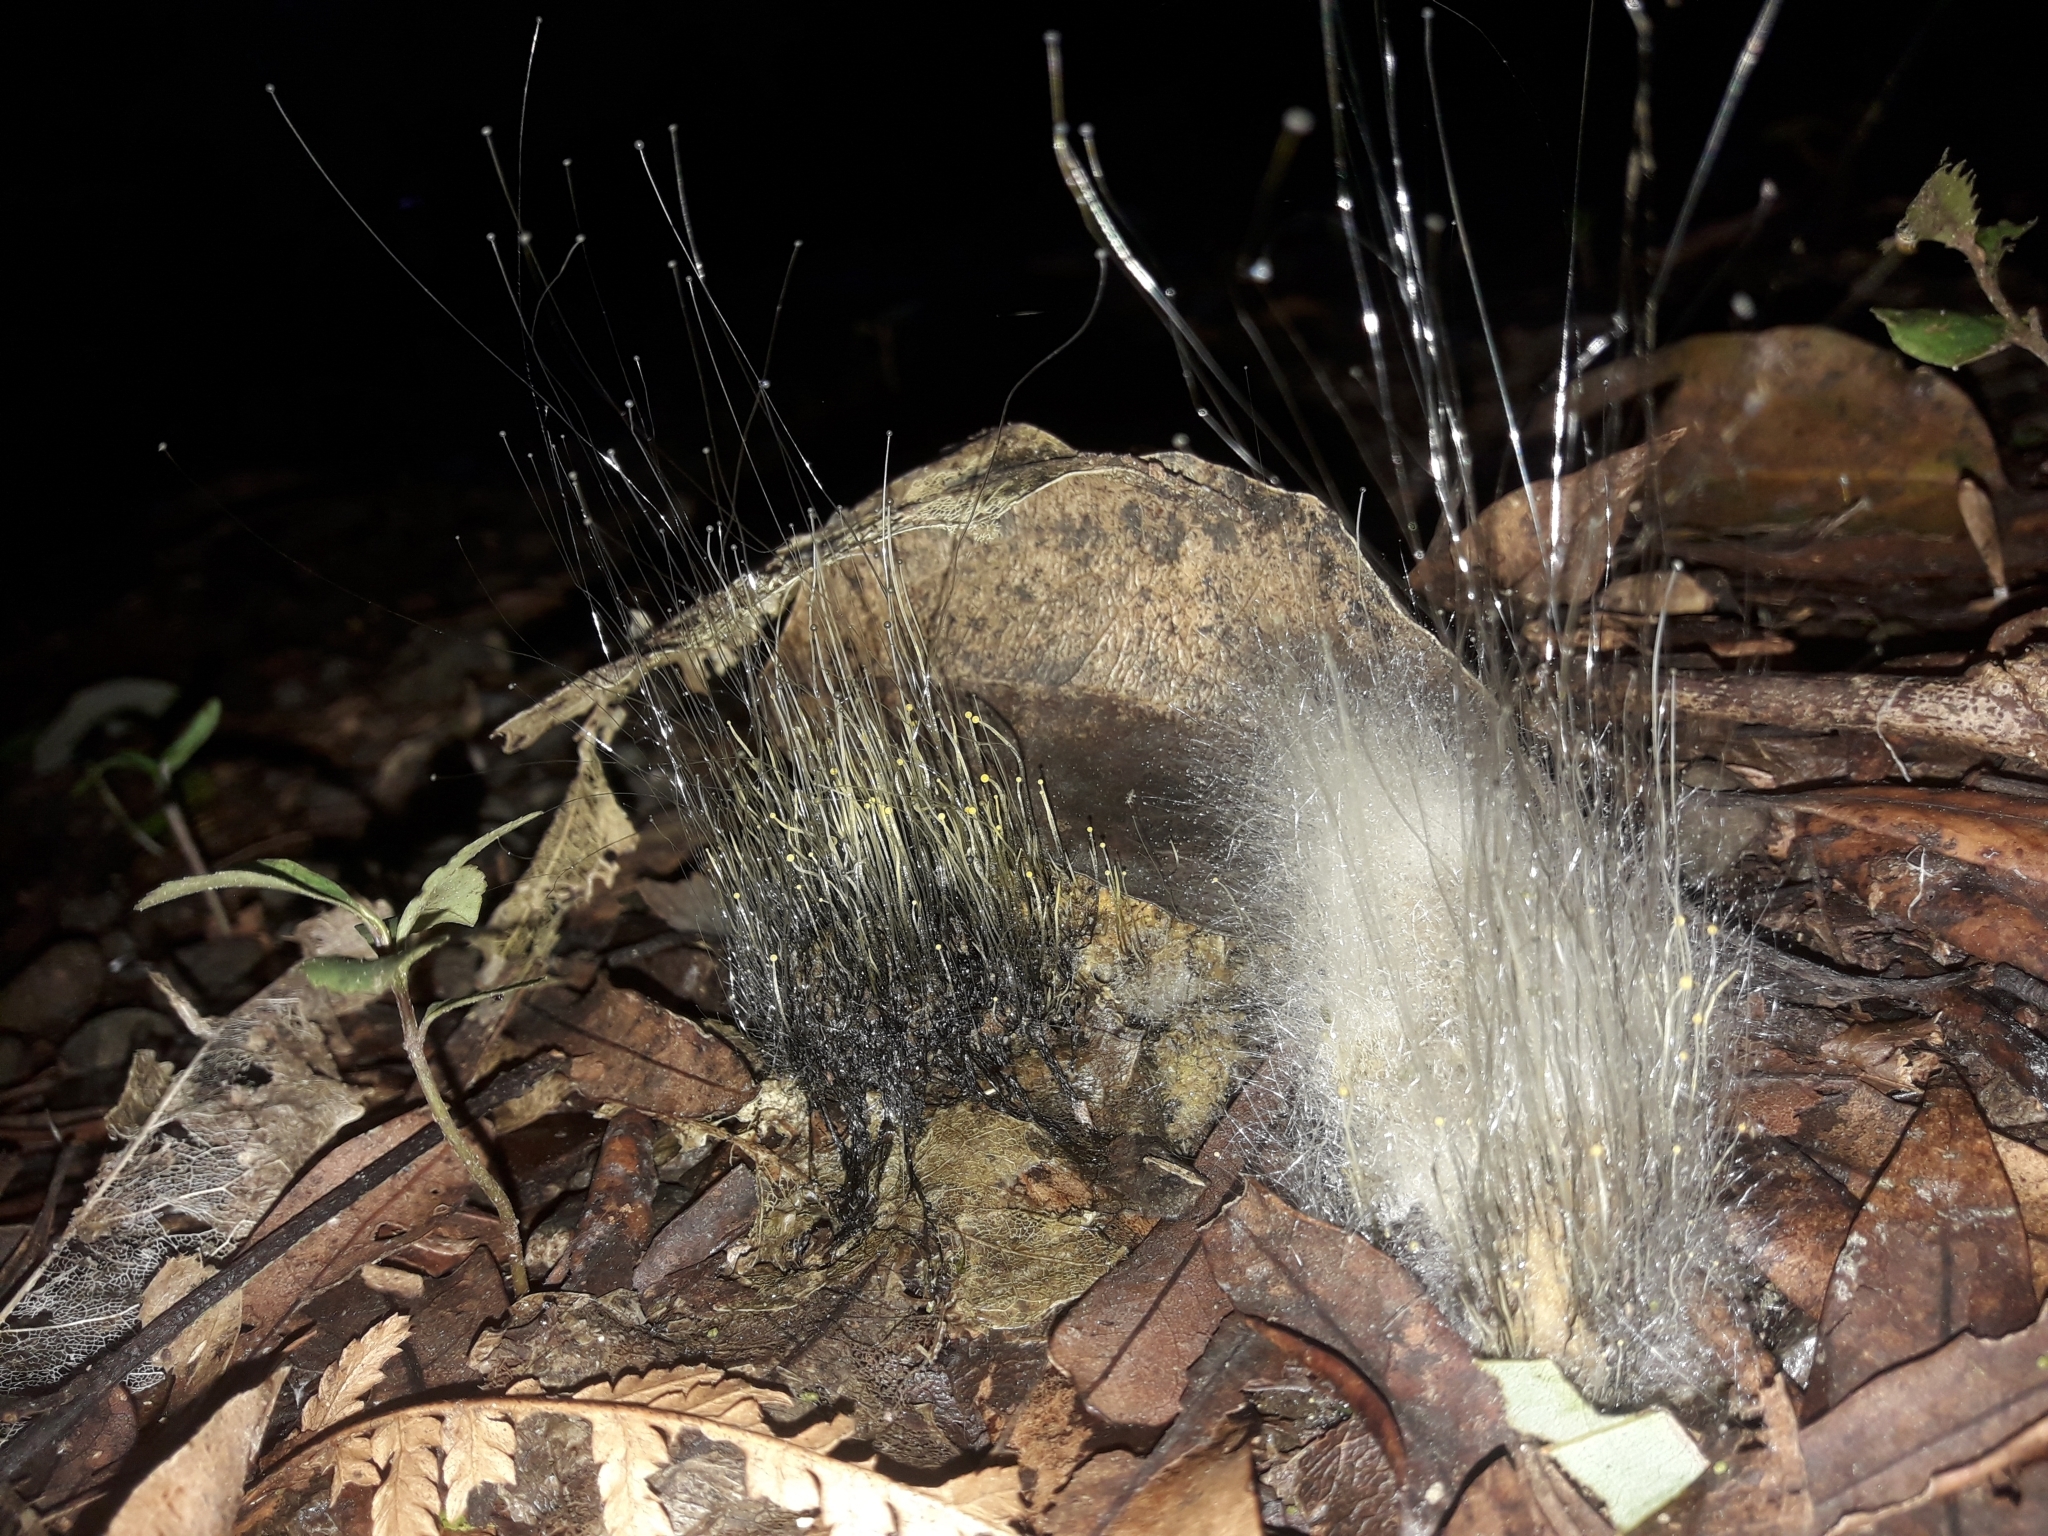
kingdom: Fungi
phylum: Mucoromycota
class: Mucoromycetes
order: Mucorales
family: Phycomycetaceae
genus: Phycomyces
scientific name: Phycomyces
